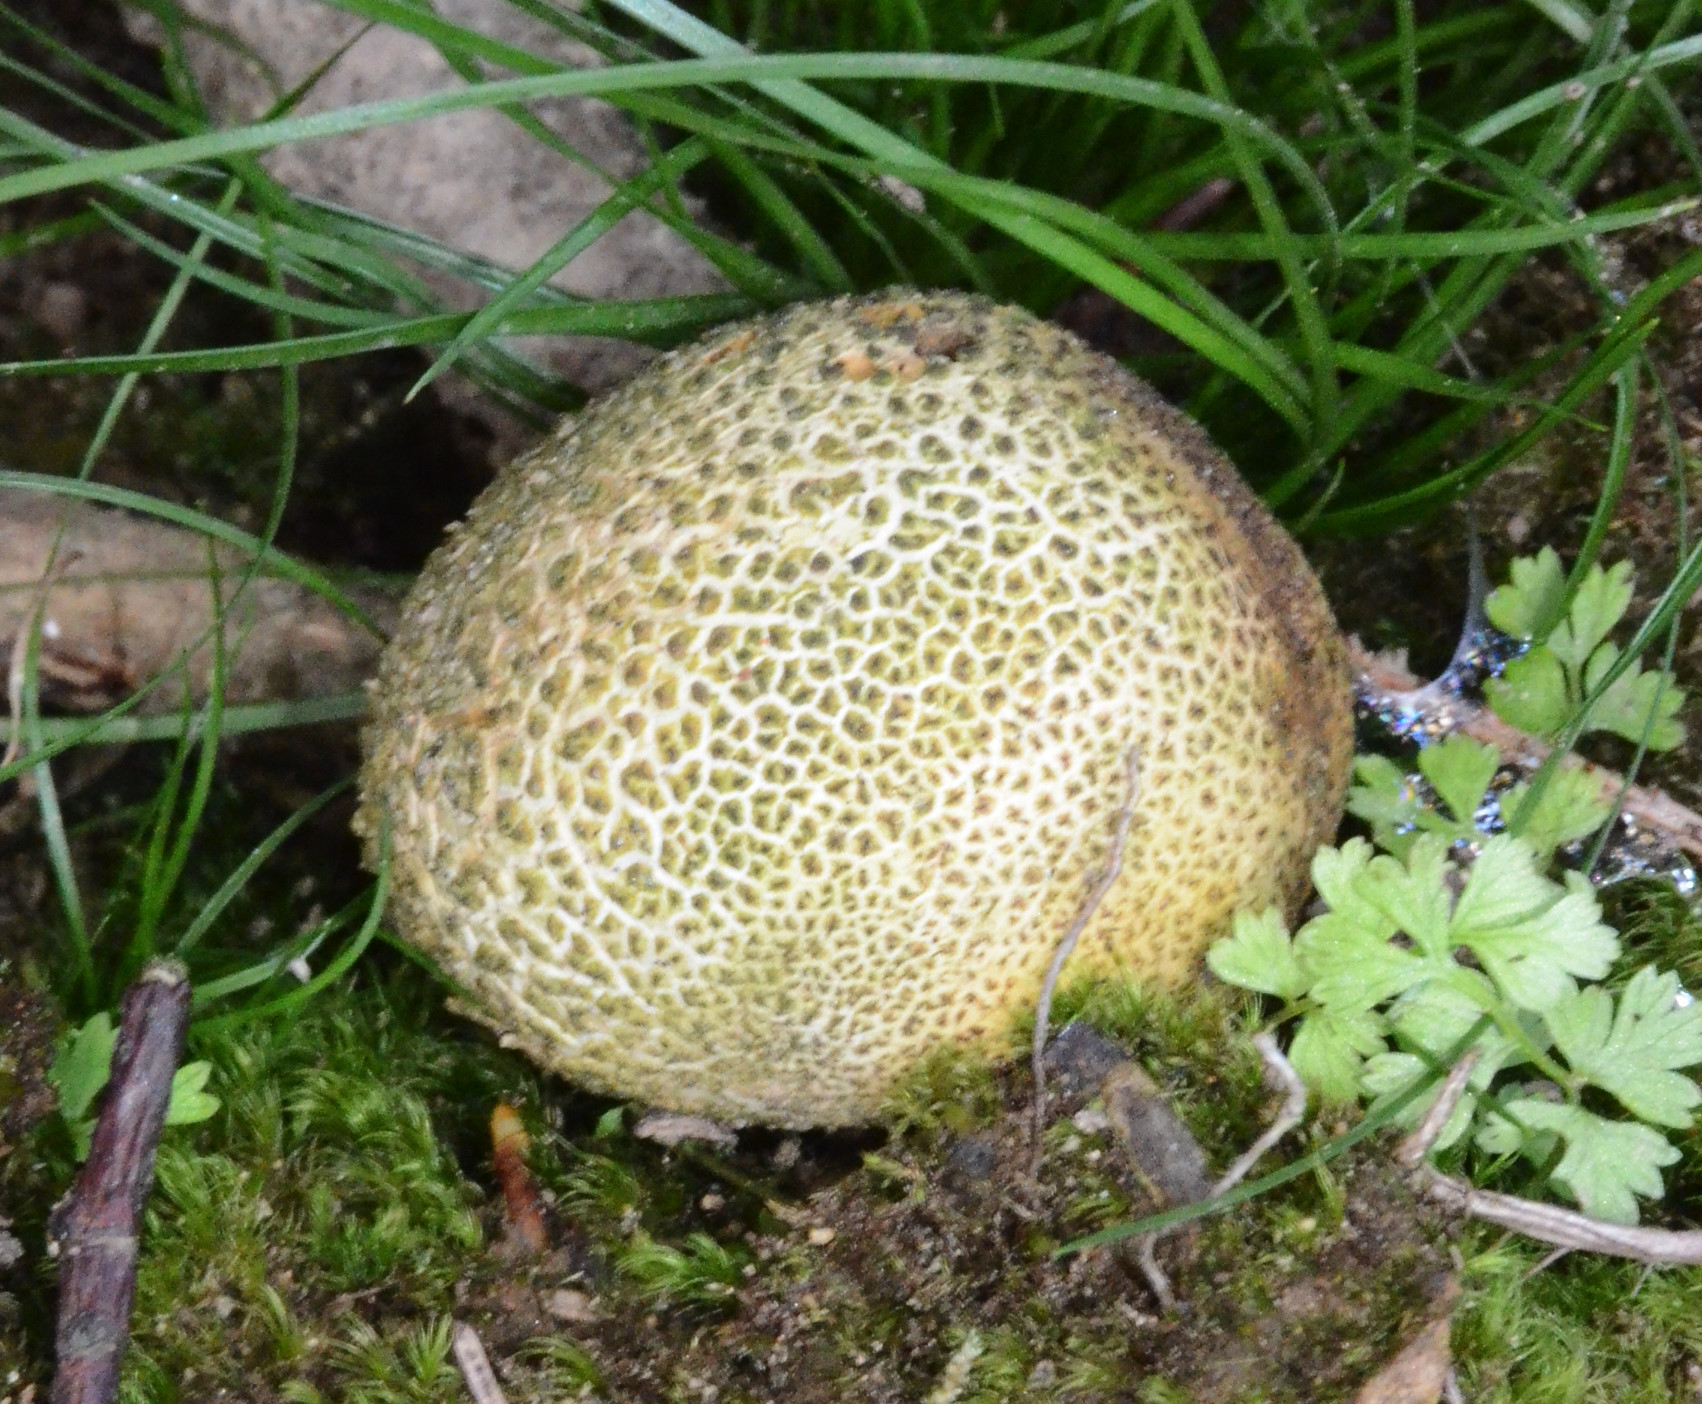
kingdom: Fungi
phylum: Basidiomycota
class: Agaricomycetes
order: Boletales
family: Sclerodermataceae
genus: Scleroderma
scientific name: Scleroderma citrinum
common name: Common earthball
